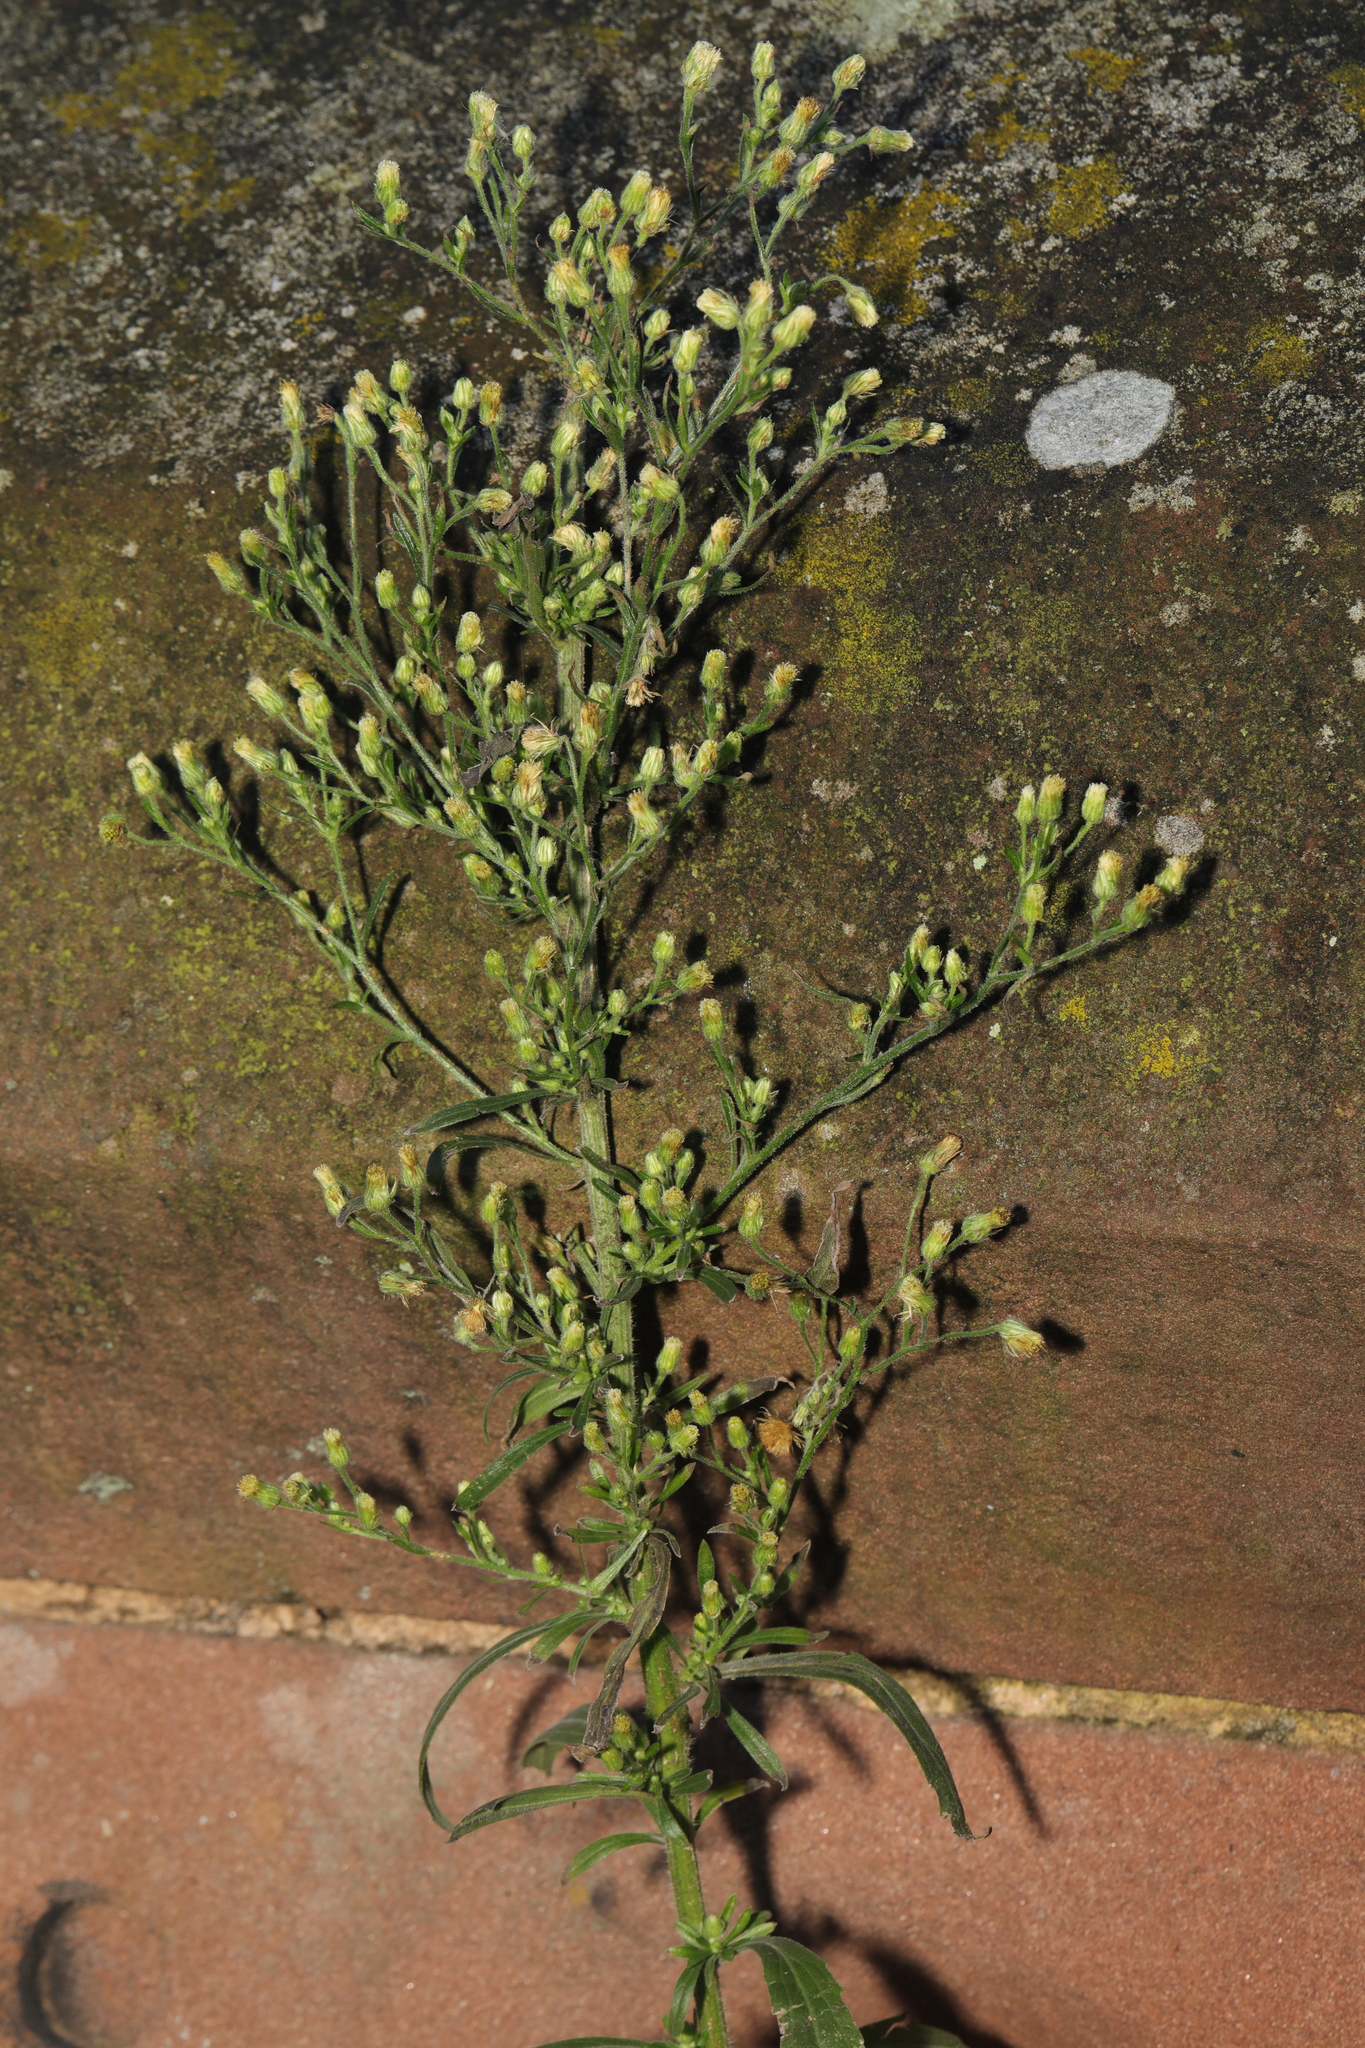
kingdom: Plantae
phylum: Tracheophyta
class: Magnoliopsida
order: Asterales
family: Asteraceae
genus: Erigeron
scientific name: Erigeron canadensis
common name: Canadian fleabane
